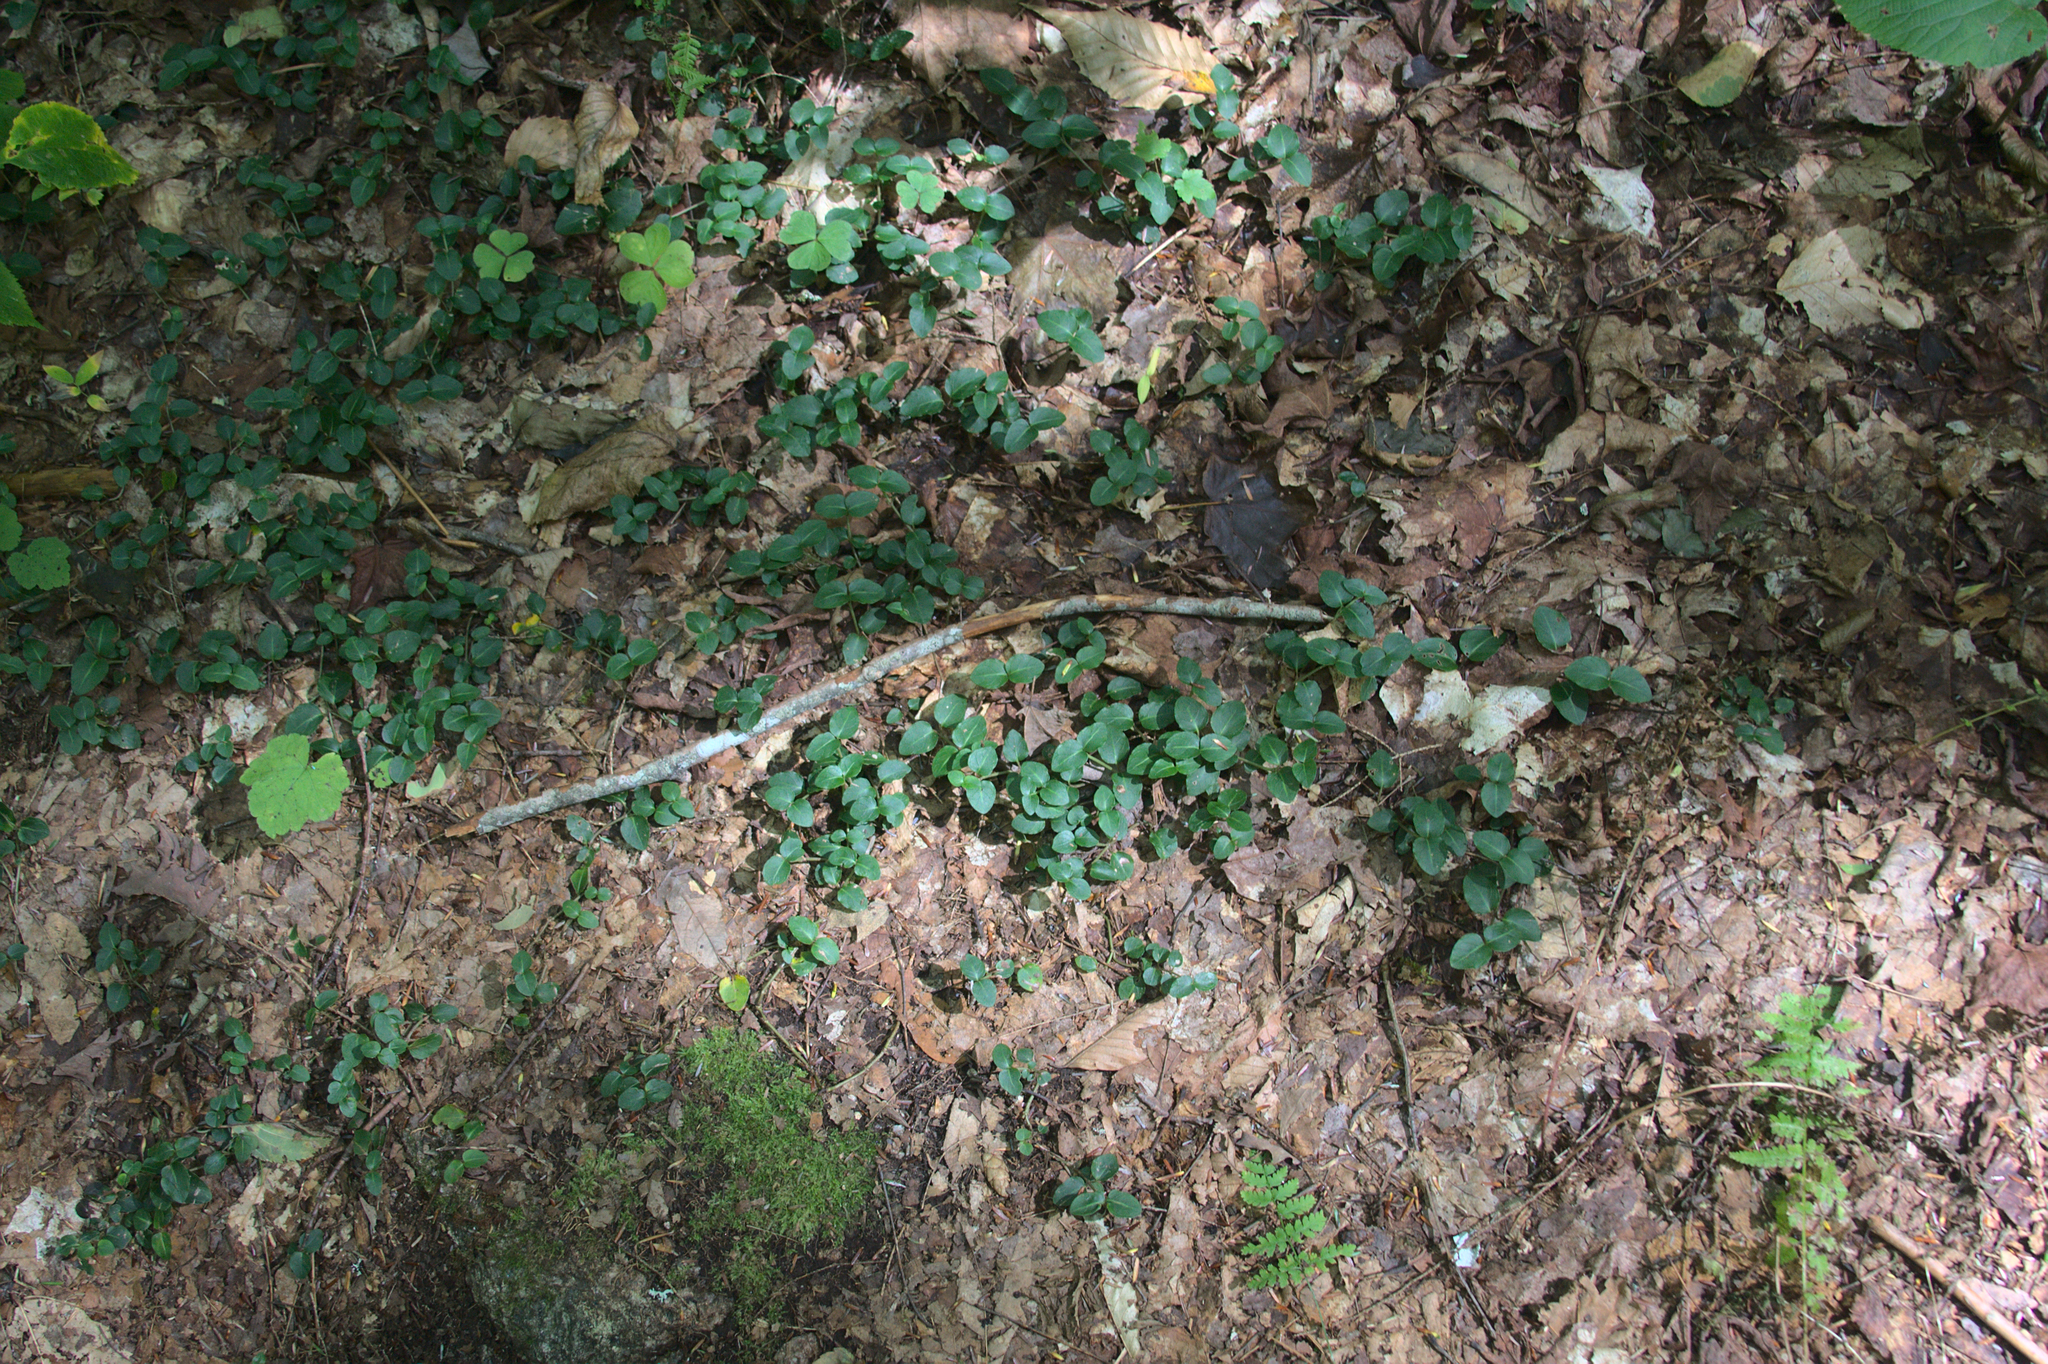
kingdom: Plantae
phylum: Tracheophyta
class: Magnoliopsida
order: Gentianales
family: Rubiaceae
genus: Mitchella
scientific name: Mitchella repens
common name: Partridge-berry
